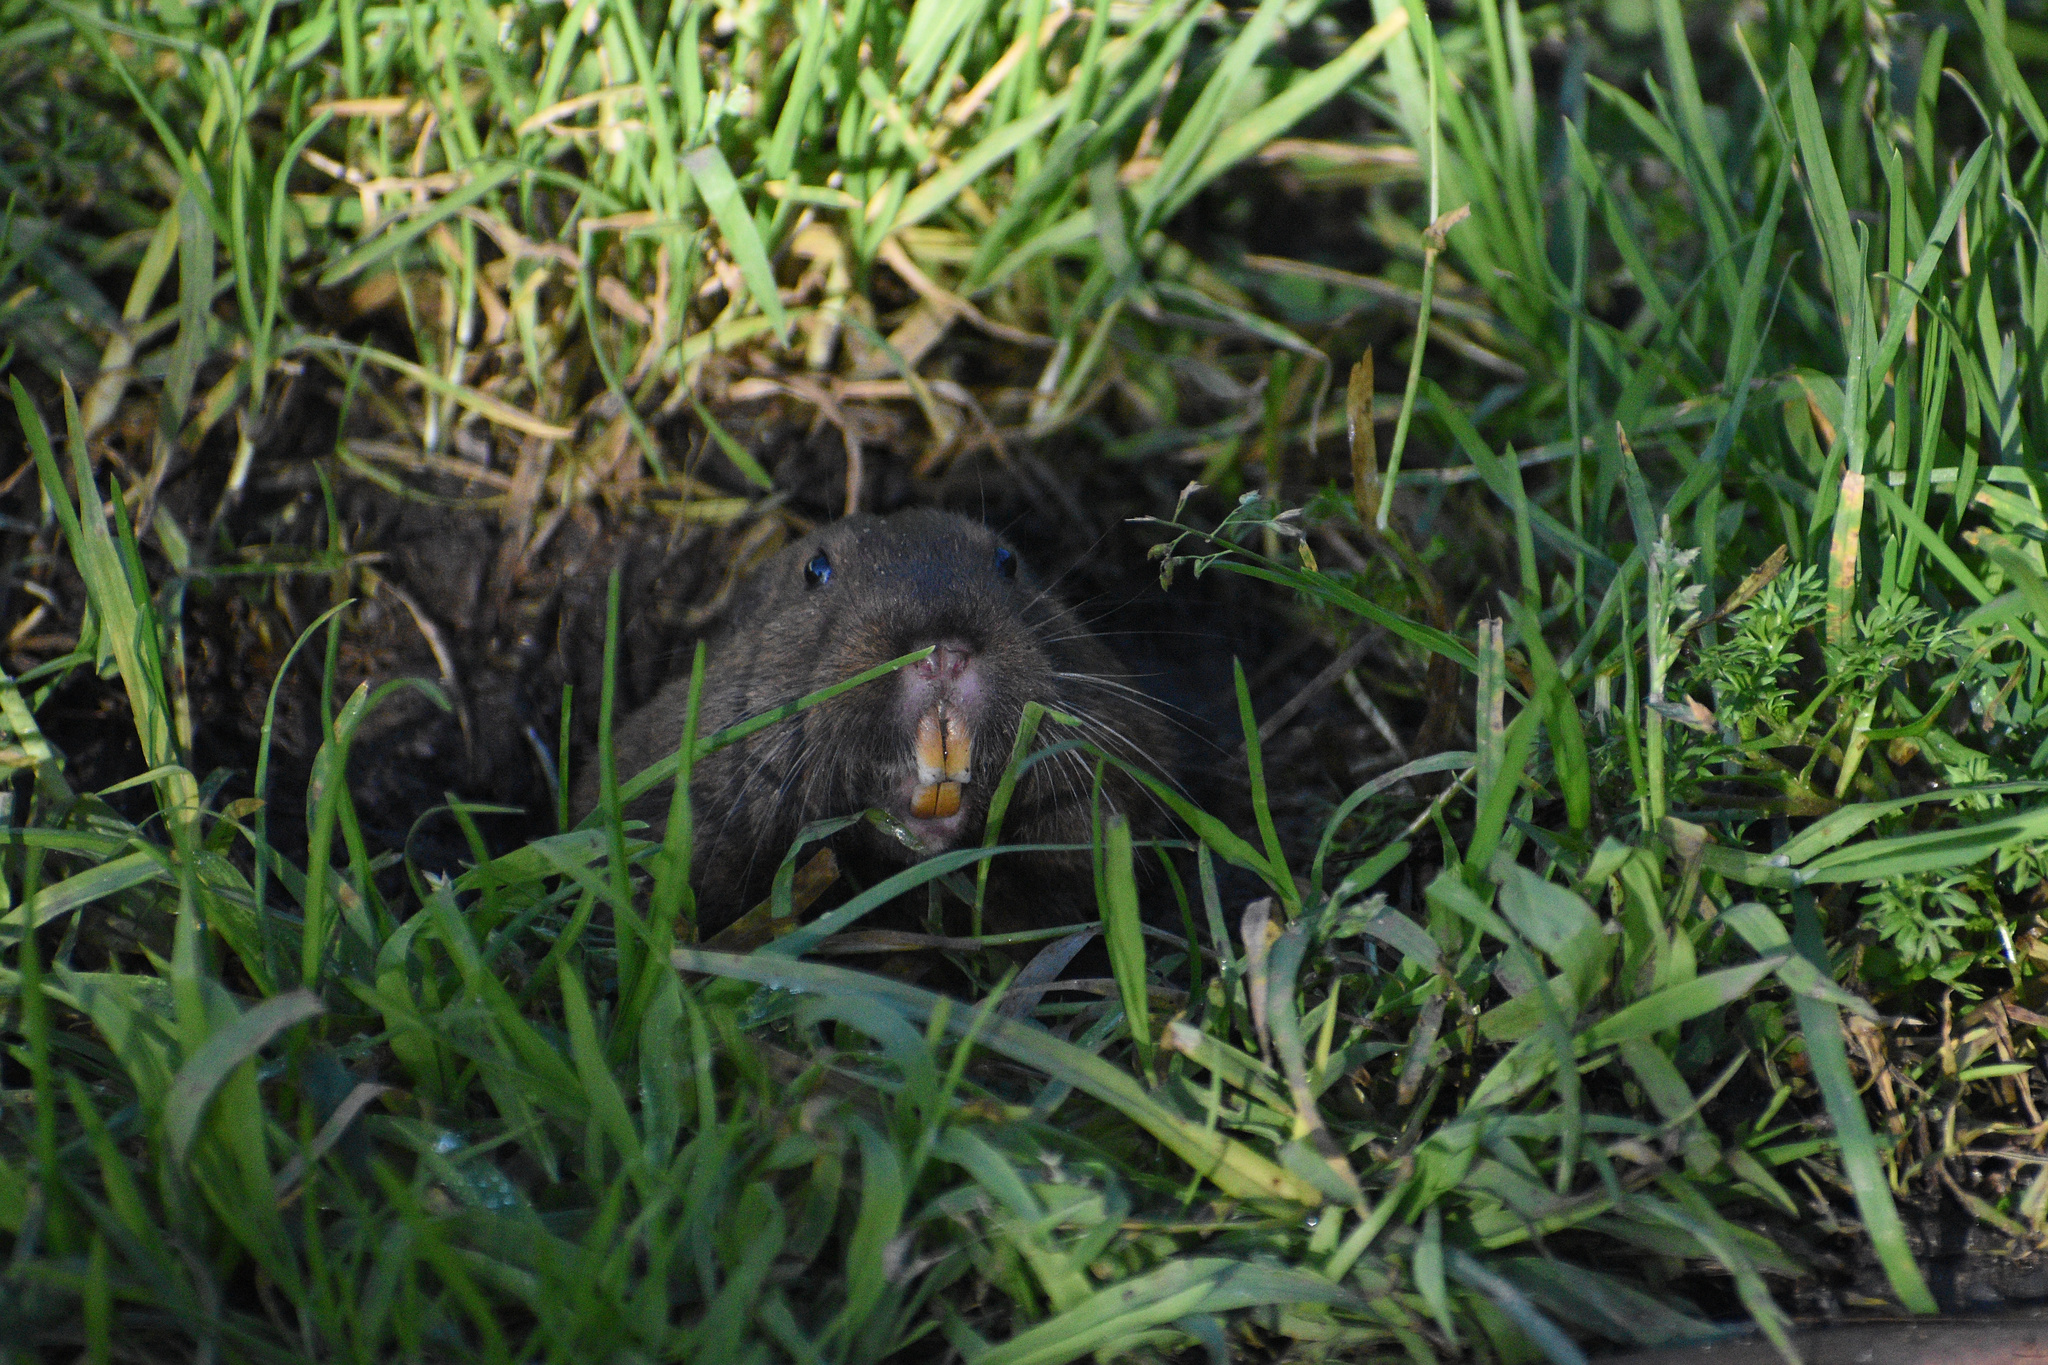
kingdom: Animalia
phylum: Chordata
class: Mammalia
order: Rodentia
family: Geomyidae
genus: Thomomys
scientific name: Thomomys bottae
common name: Botta's pocket gopher
